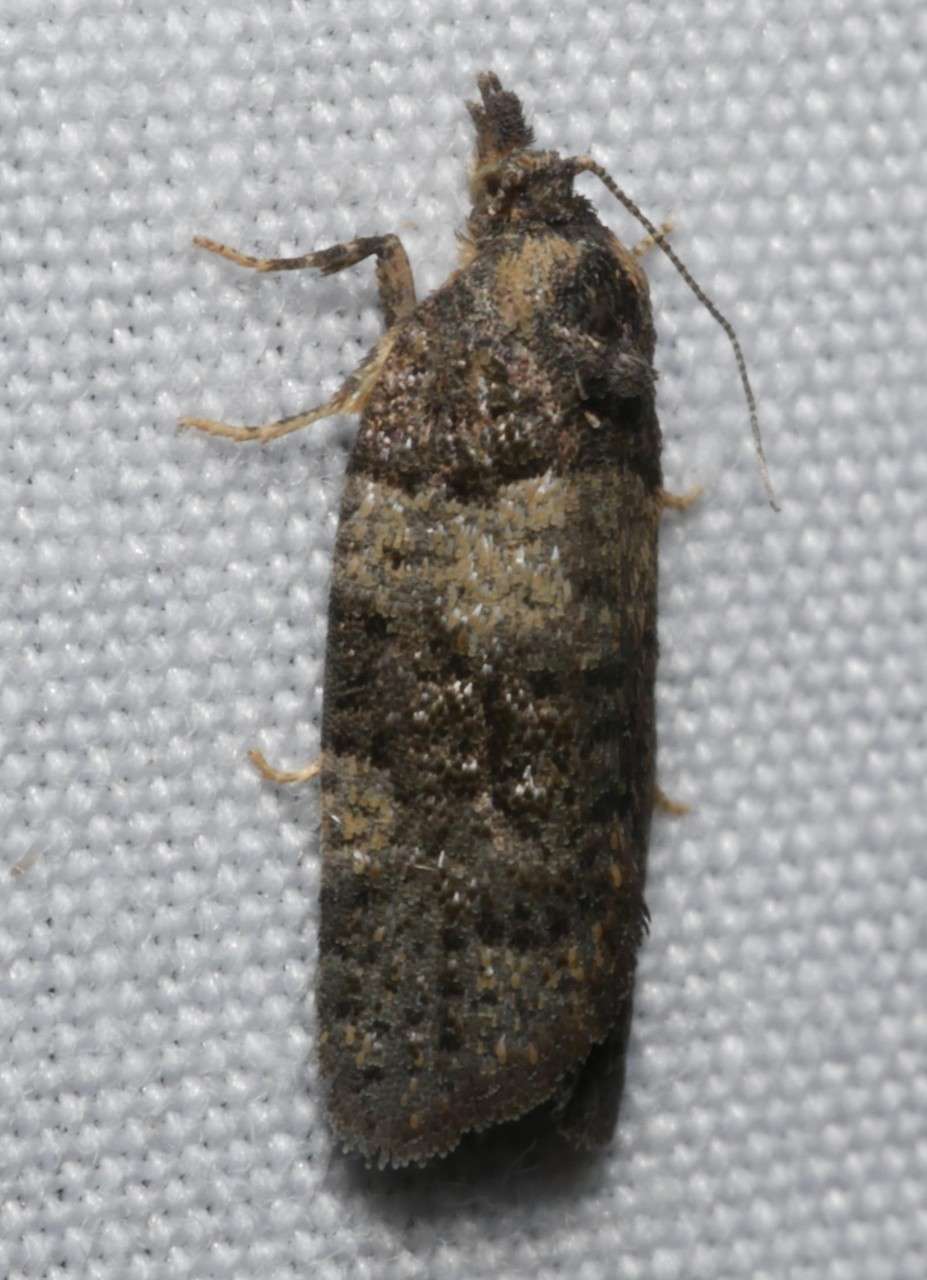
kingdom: Animalia
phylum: Arthropoda
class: Insecta
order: Lepidoptera
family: Tortricidae
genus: Dichelia
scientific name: Dichelia cosmopis
